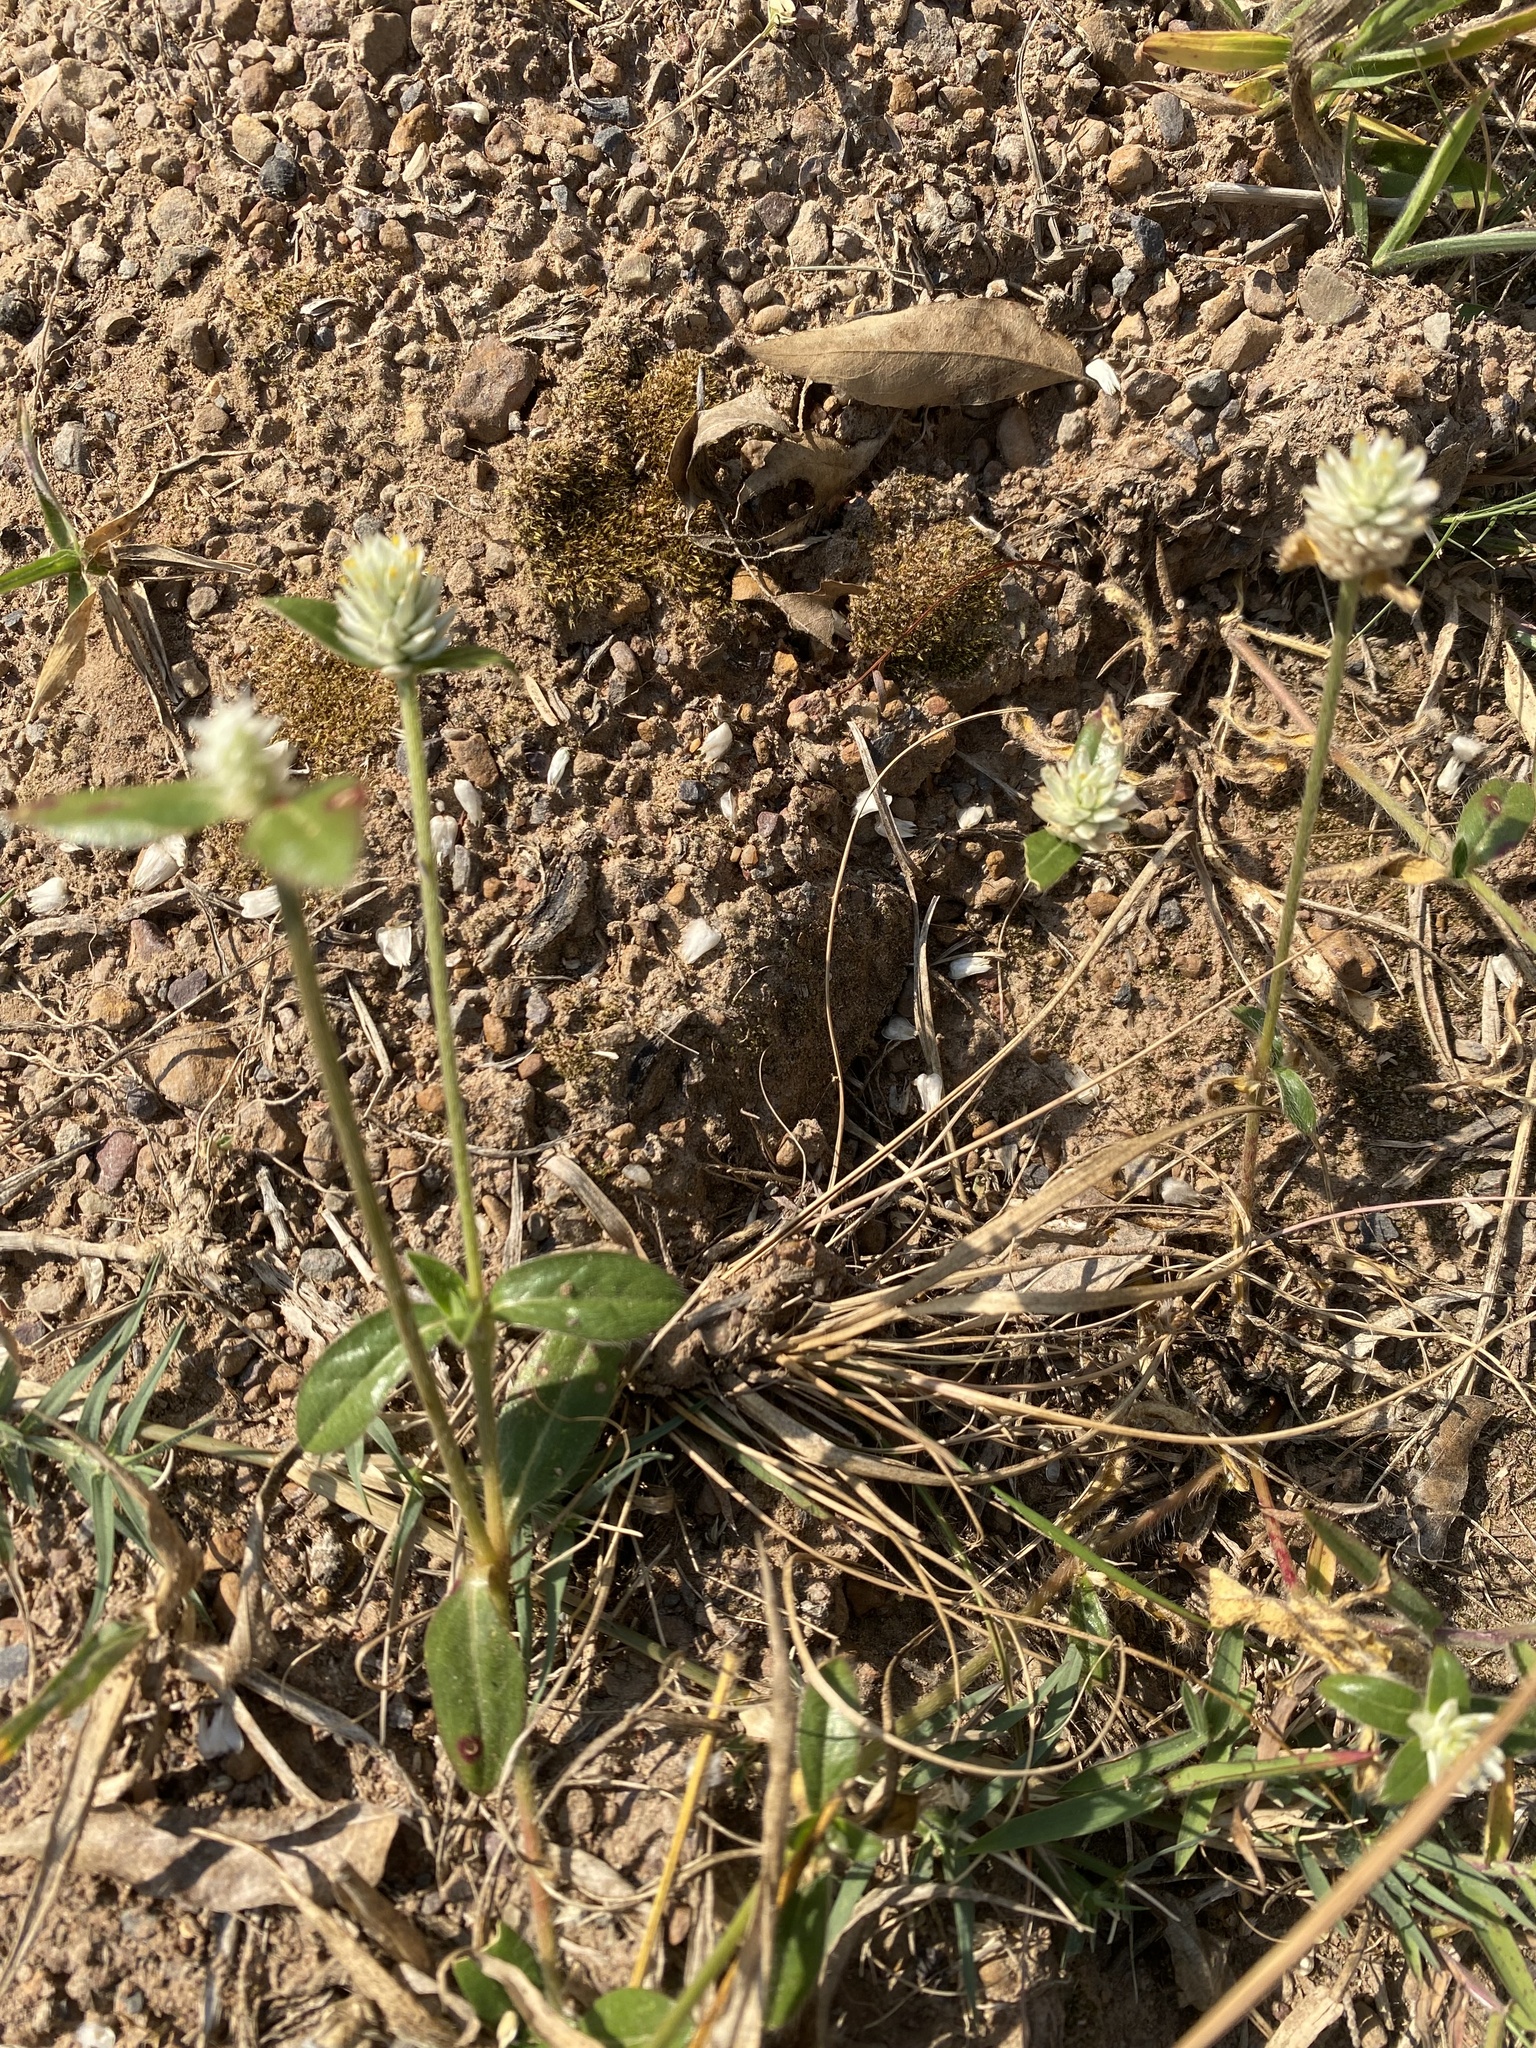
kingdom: Plantae
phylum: Tracheophyta
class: Magnoliopsida
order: Caryophyllales
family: Amaranthaceae
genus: Gomphrena
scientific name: Gomphrena celosioides
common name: Gomphrena-weed
